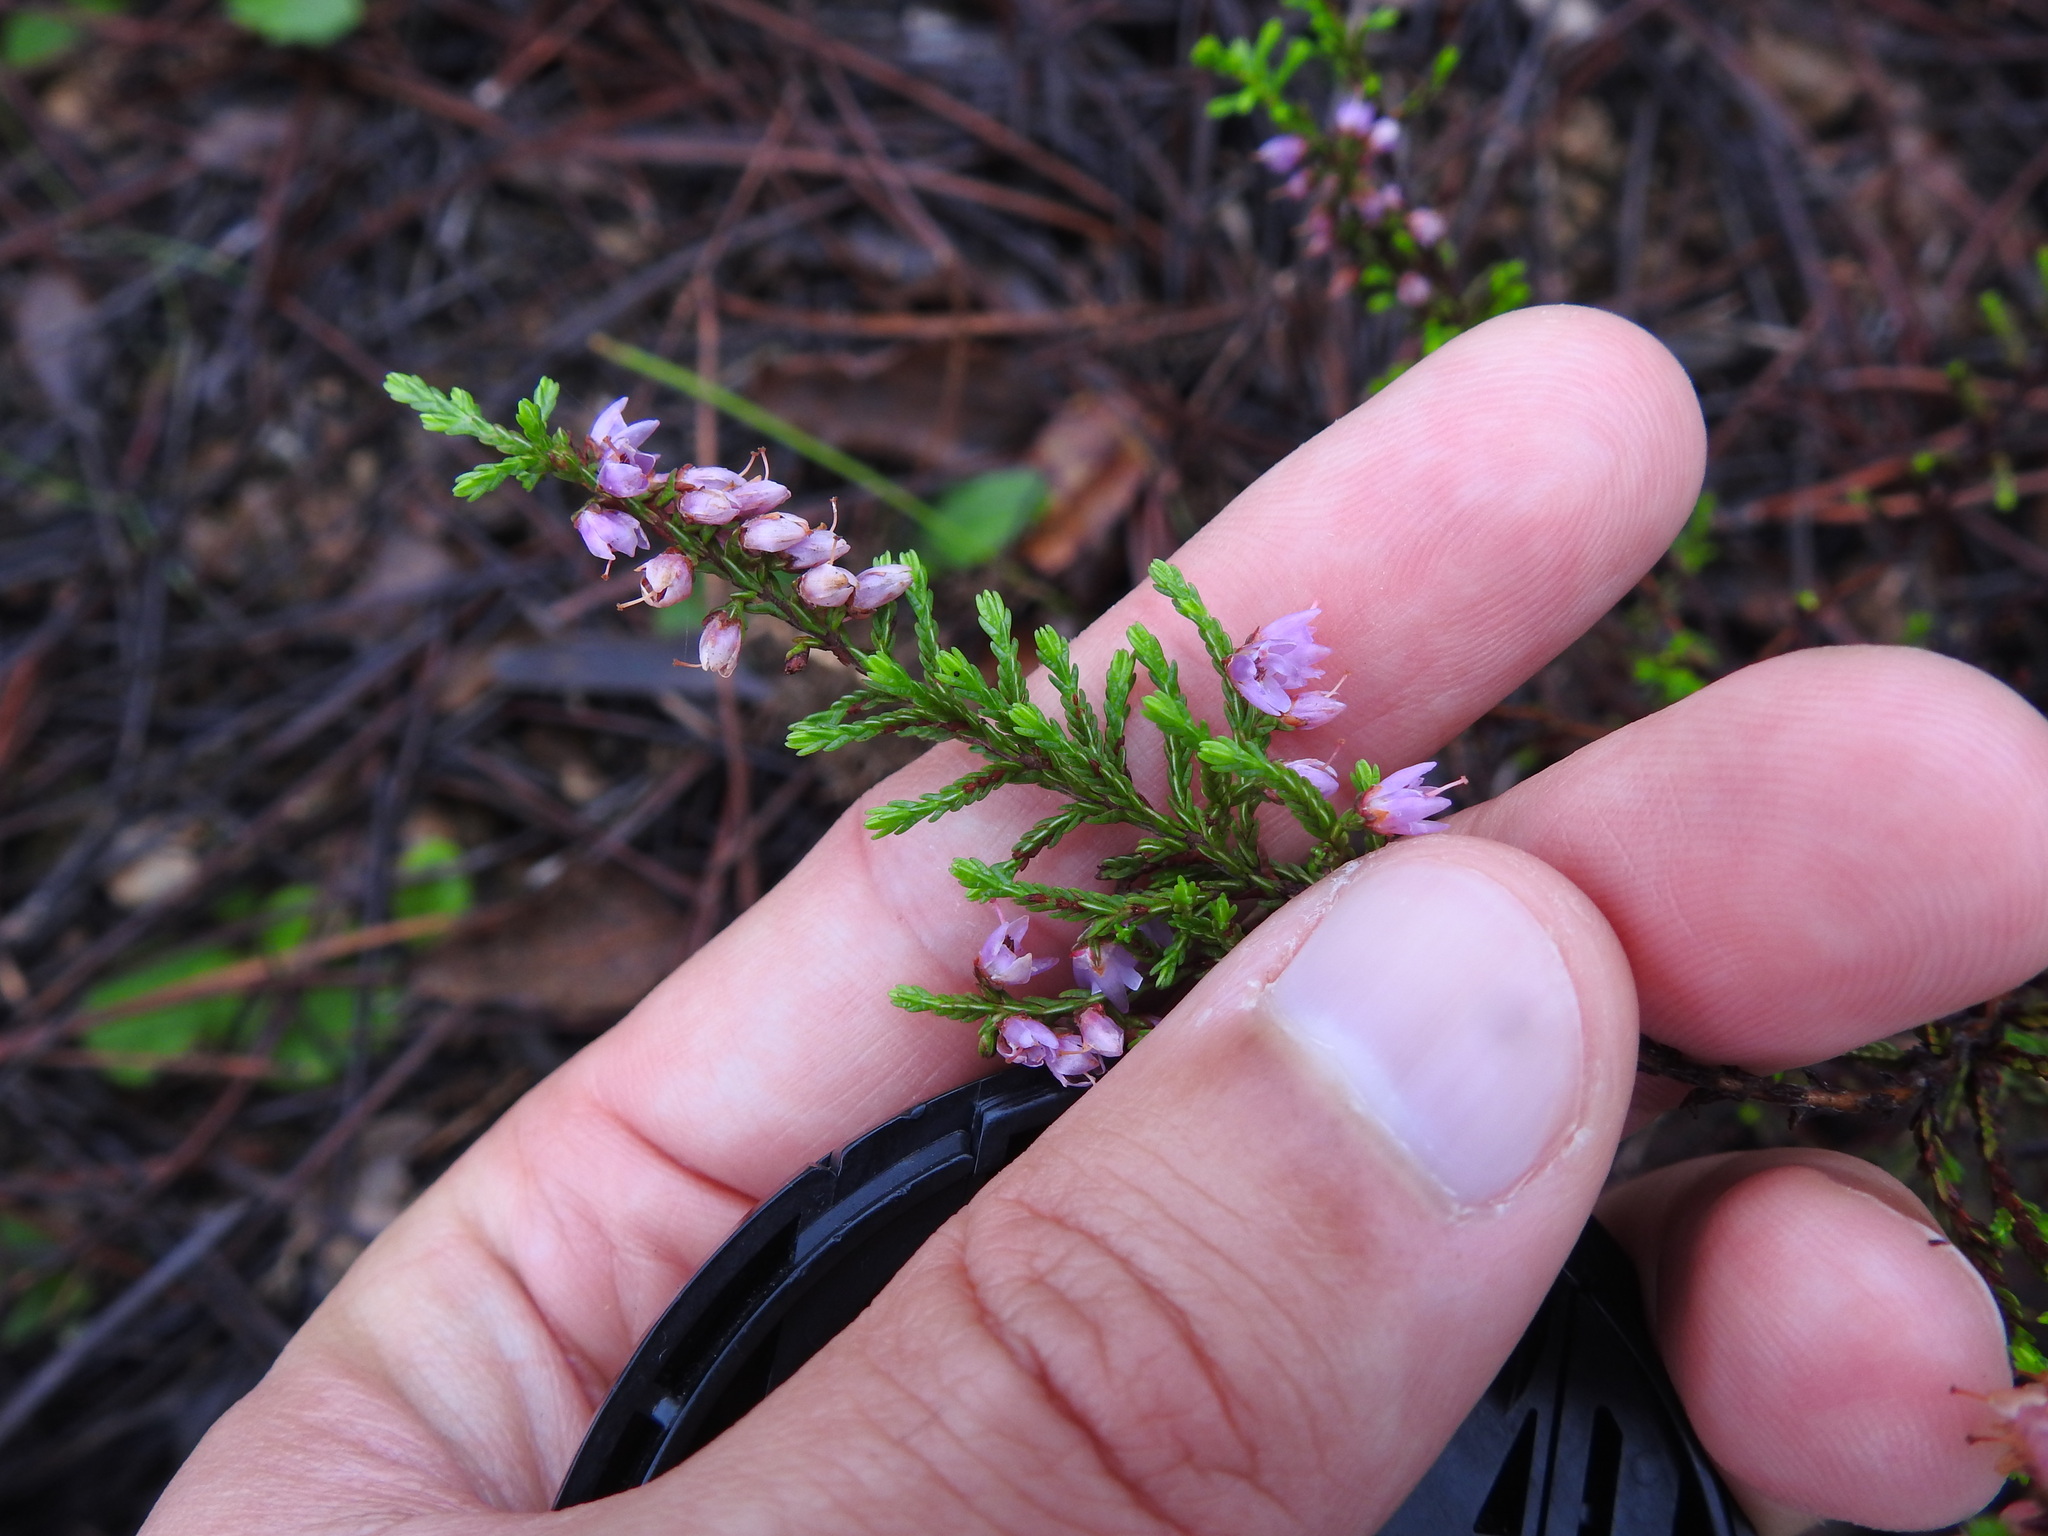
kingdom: Plantae
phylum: Tracheophyta
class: Magnoliopsida
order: Ericales
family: Ericaceae
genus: Calluna
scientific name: Calluna vulgaris
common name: Heather
